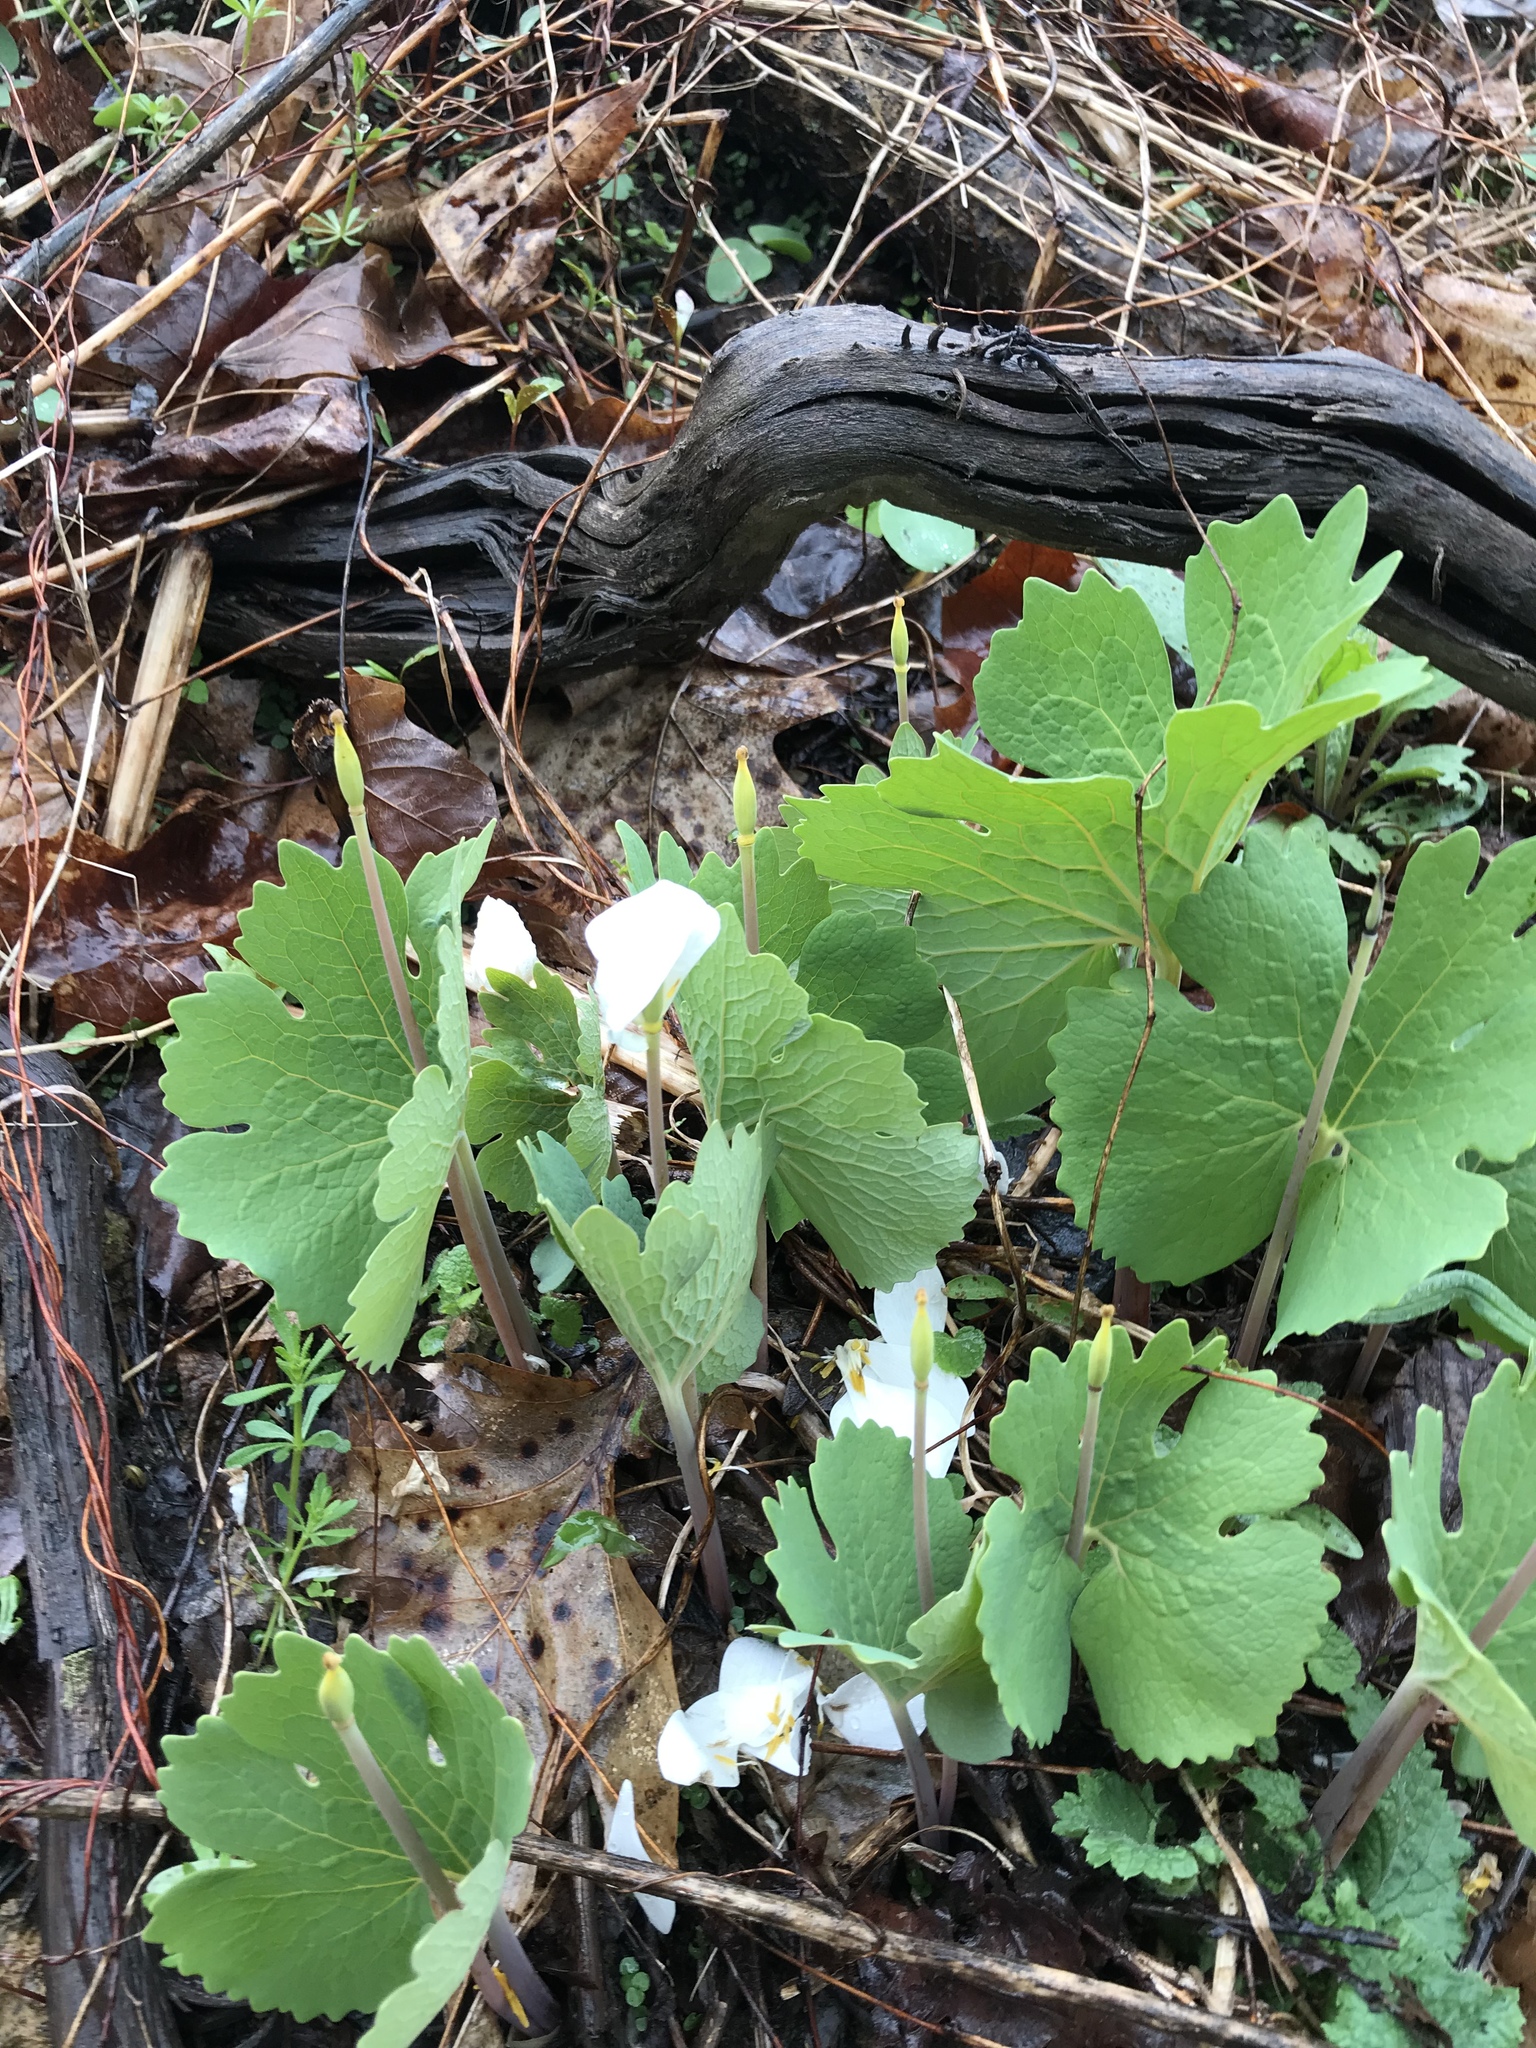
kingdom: Plantae
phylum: Tracheophyta
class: Magnoliopsida
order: Ranunculales
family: Papaveraceae
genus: Sanguinaria
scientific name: Sanguinaria canadensis
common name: Bloodroot
